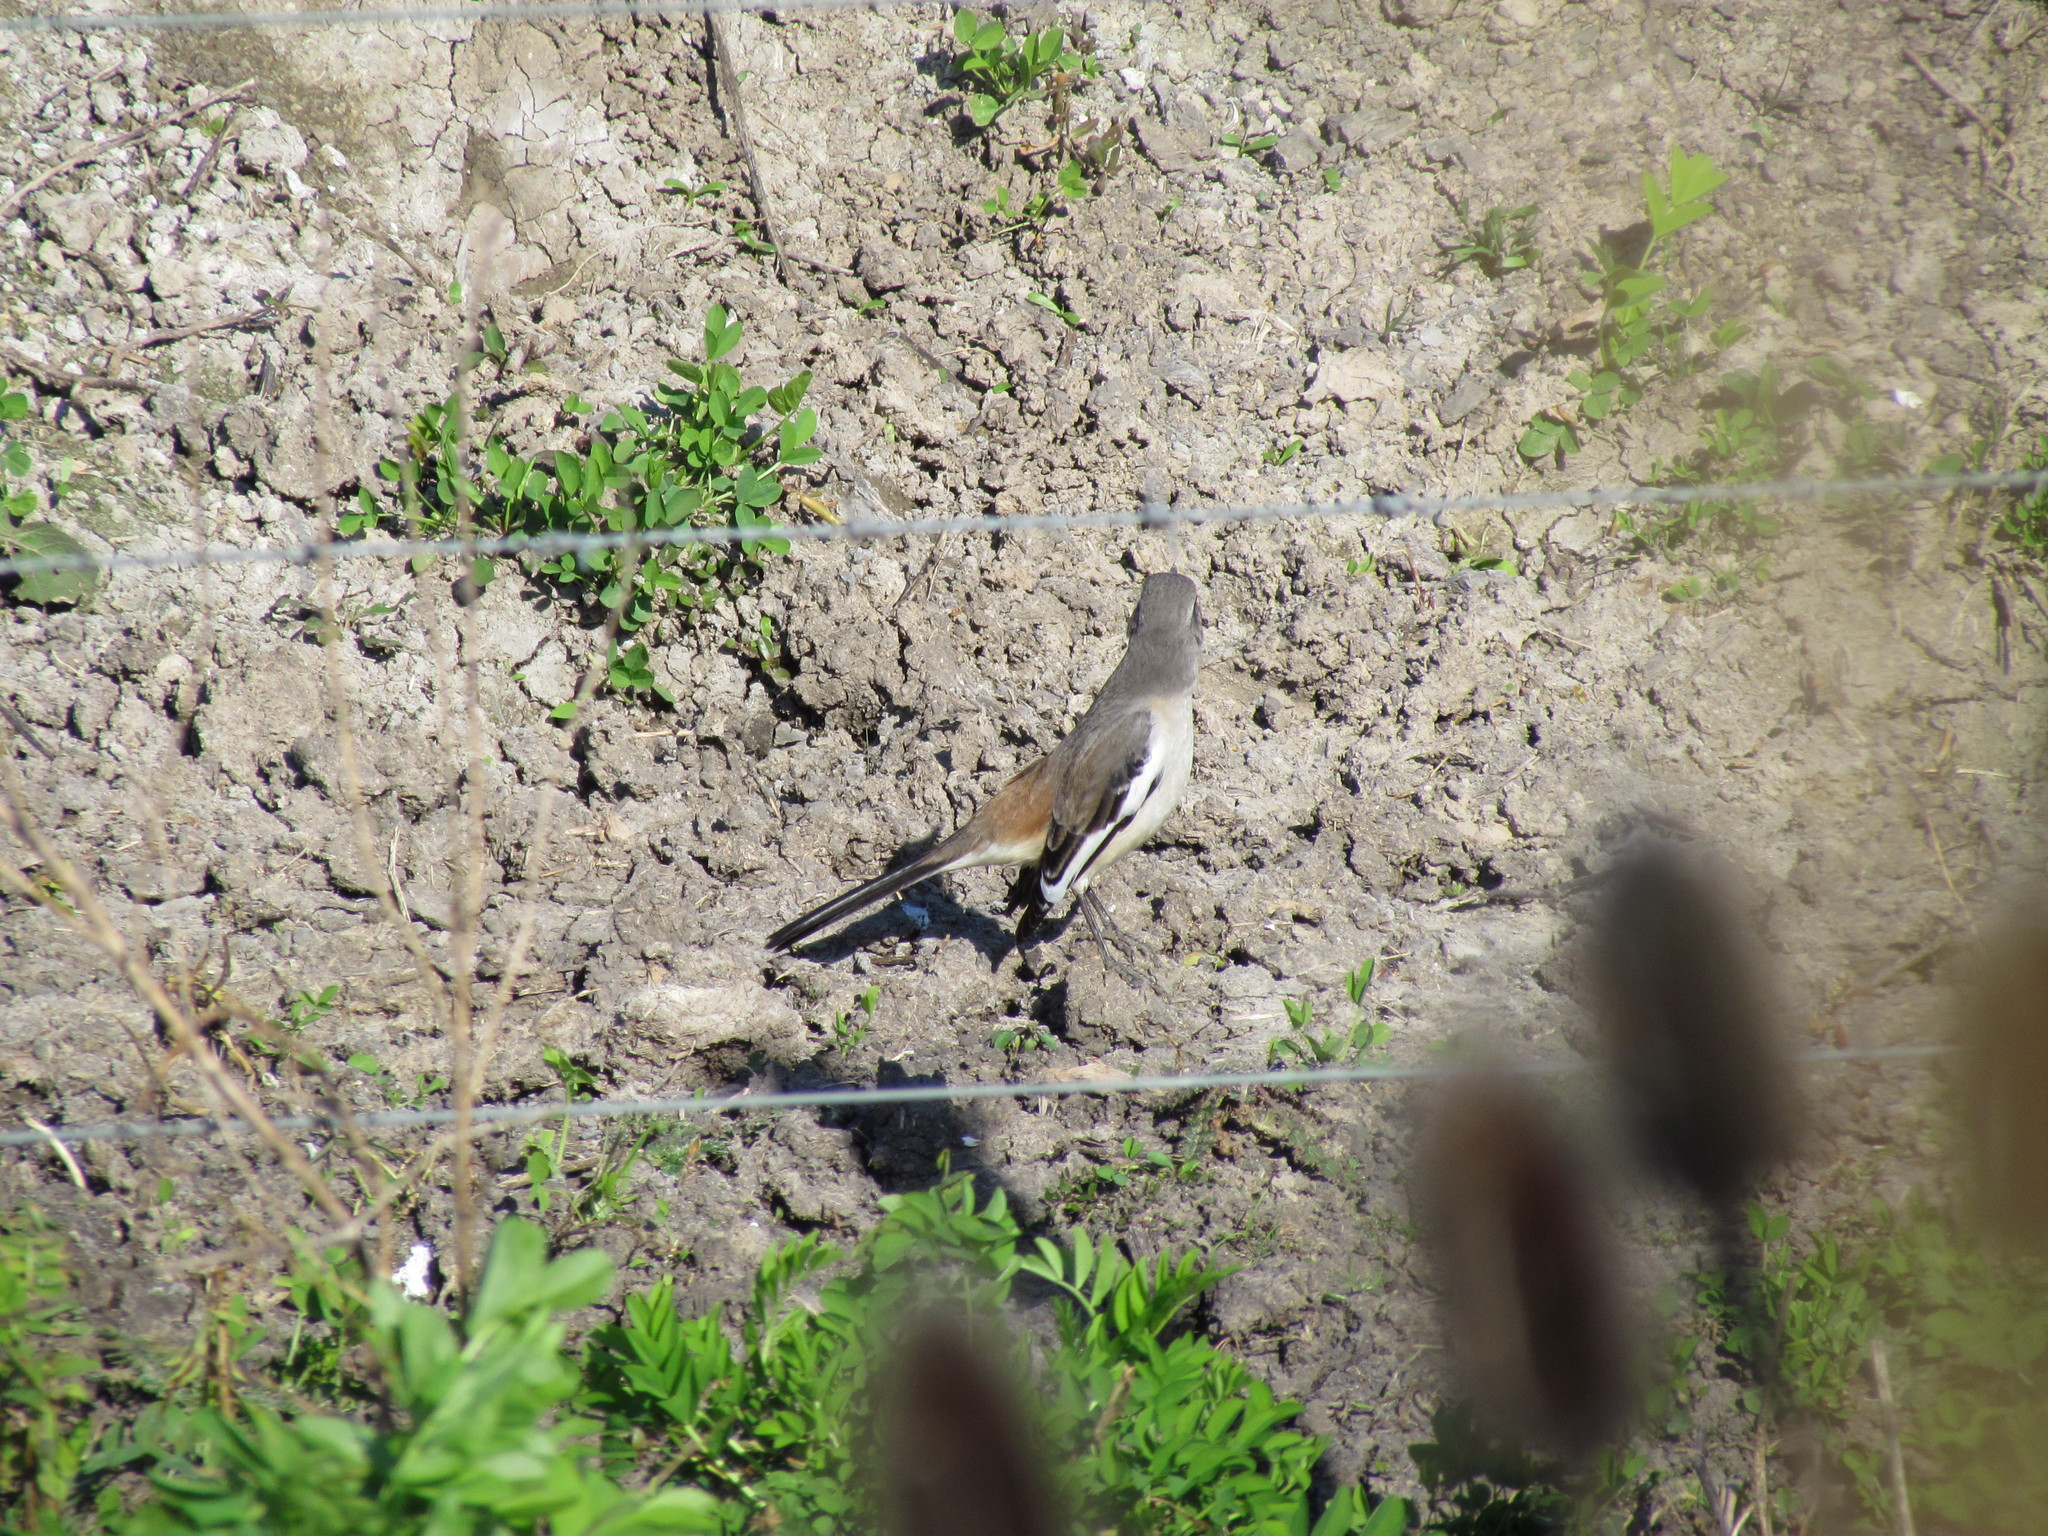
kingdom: Animalia
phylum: Chordata
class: Aves
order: Passeriformes
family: Mimidae
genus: Mimus
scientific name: Mimus triurus
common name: White-banded mockingbird
